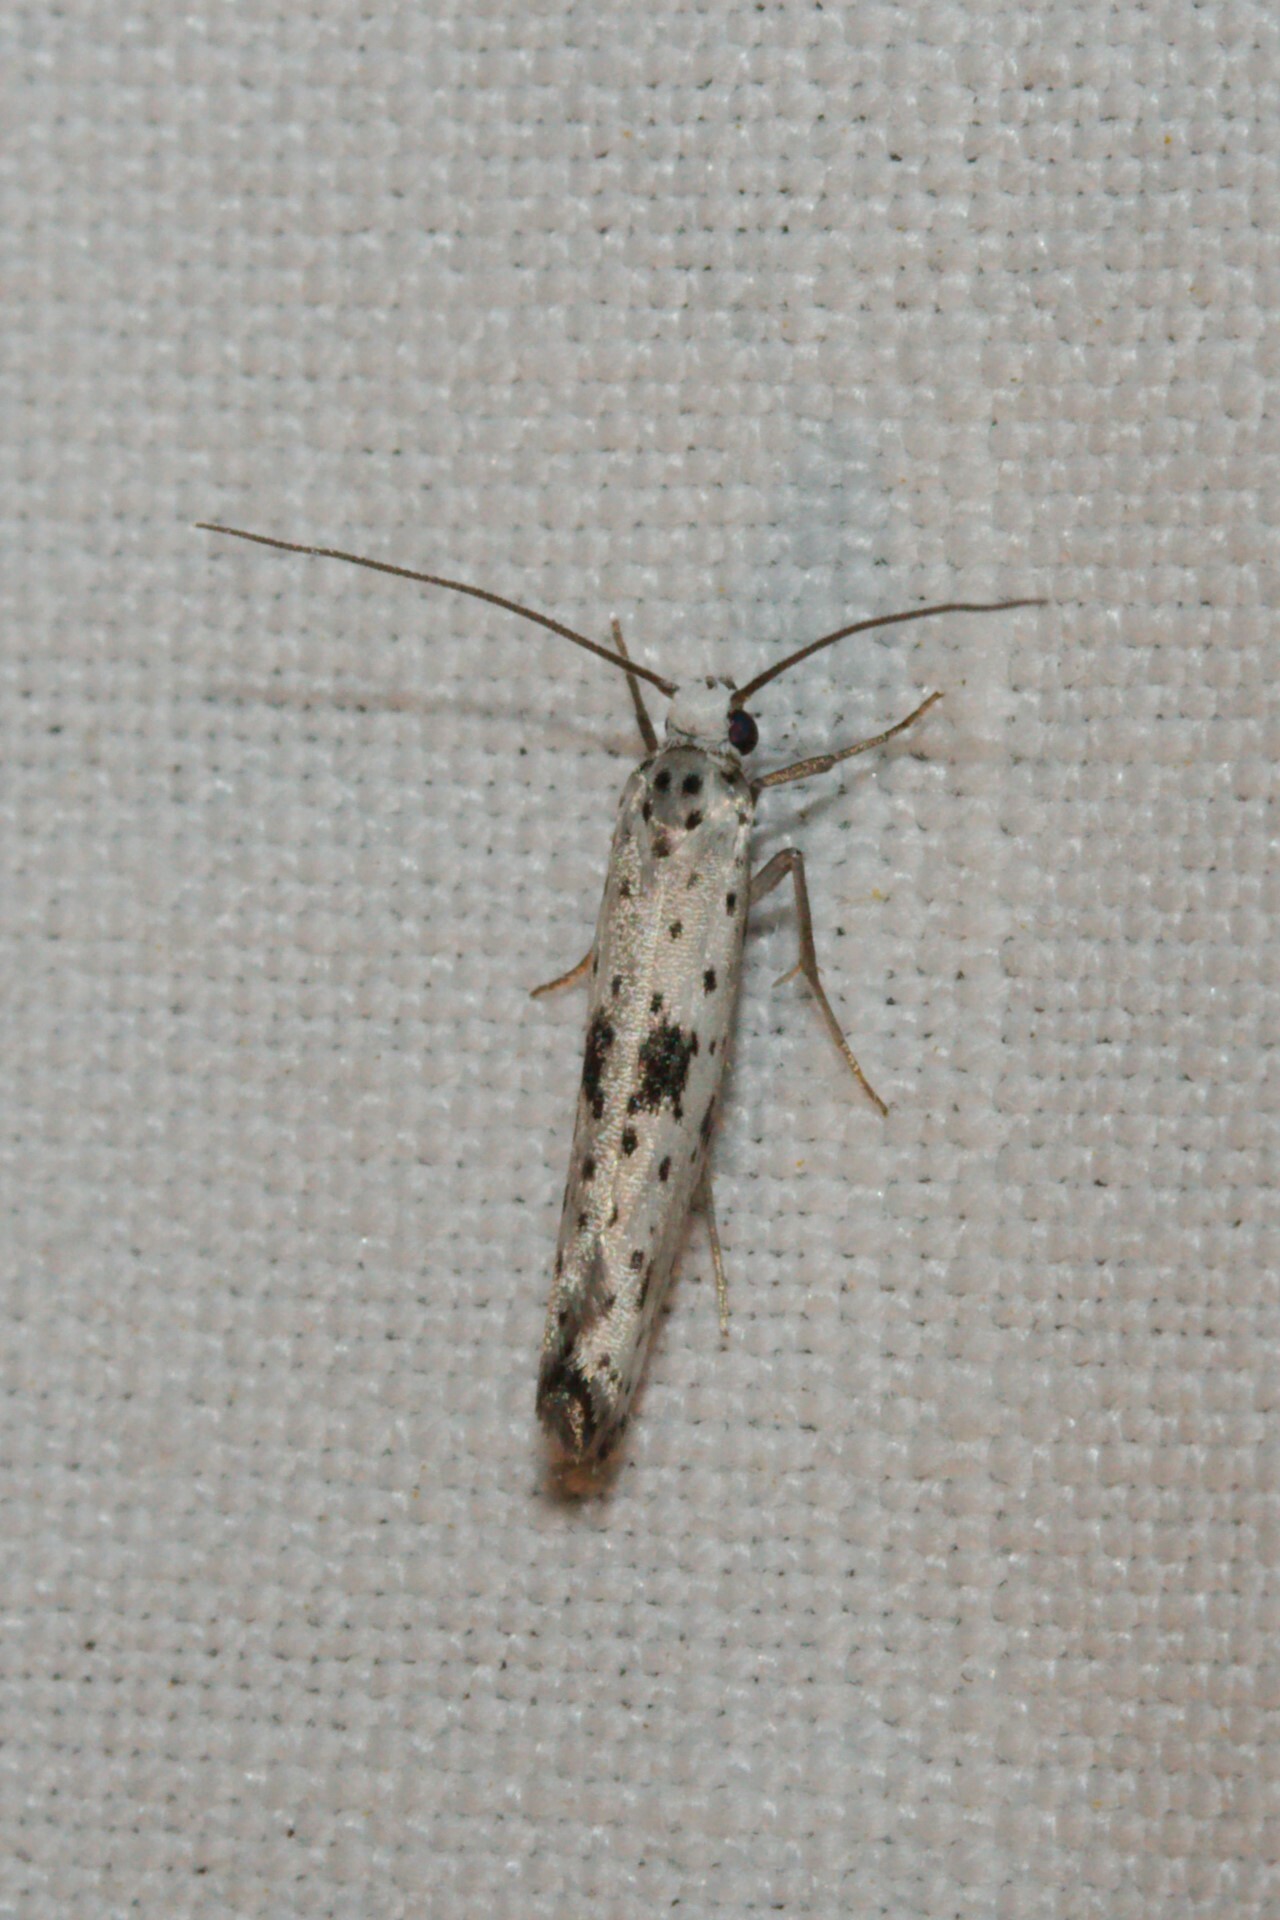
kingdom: Animalia
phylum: Arthropoda
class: Insecta
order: Lepidoptera
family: Yponomeutidae
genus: Yponomeuta
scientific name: Yponomeuta plumbella
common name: Black-tipped ermine
